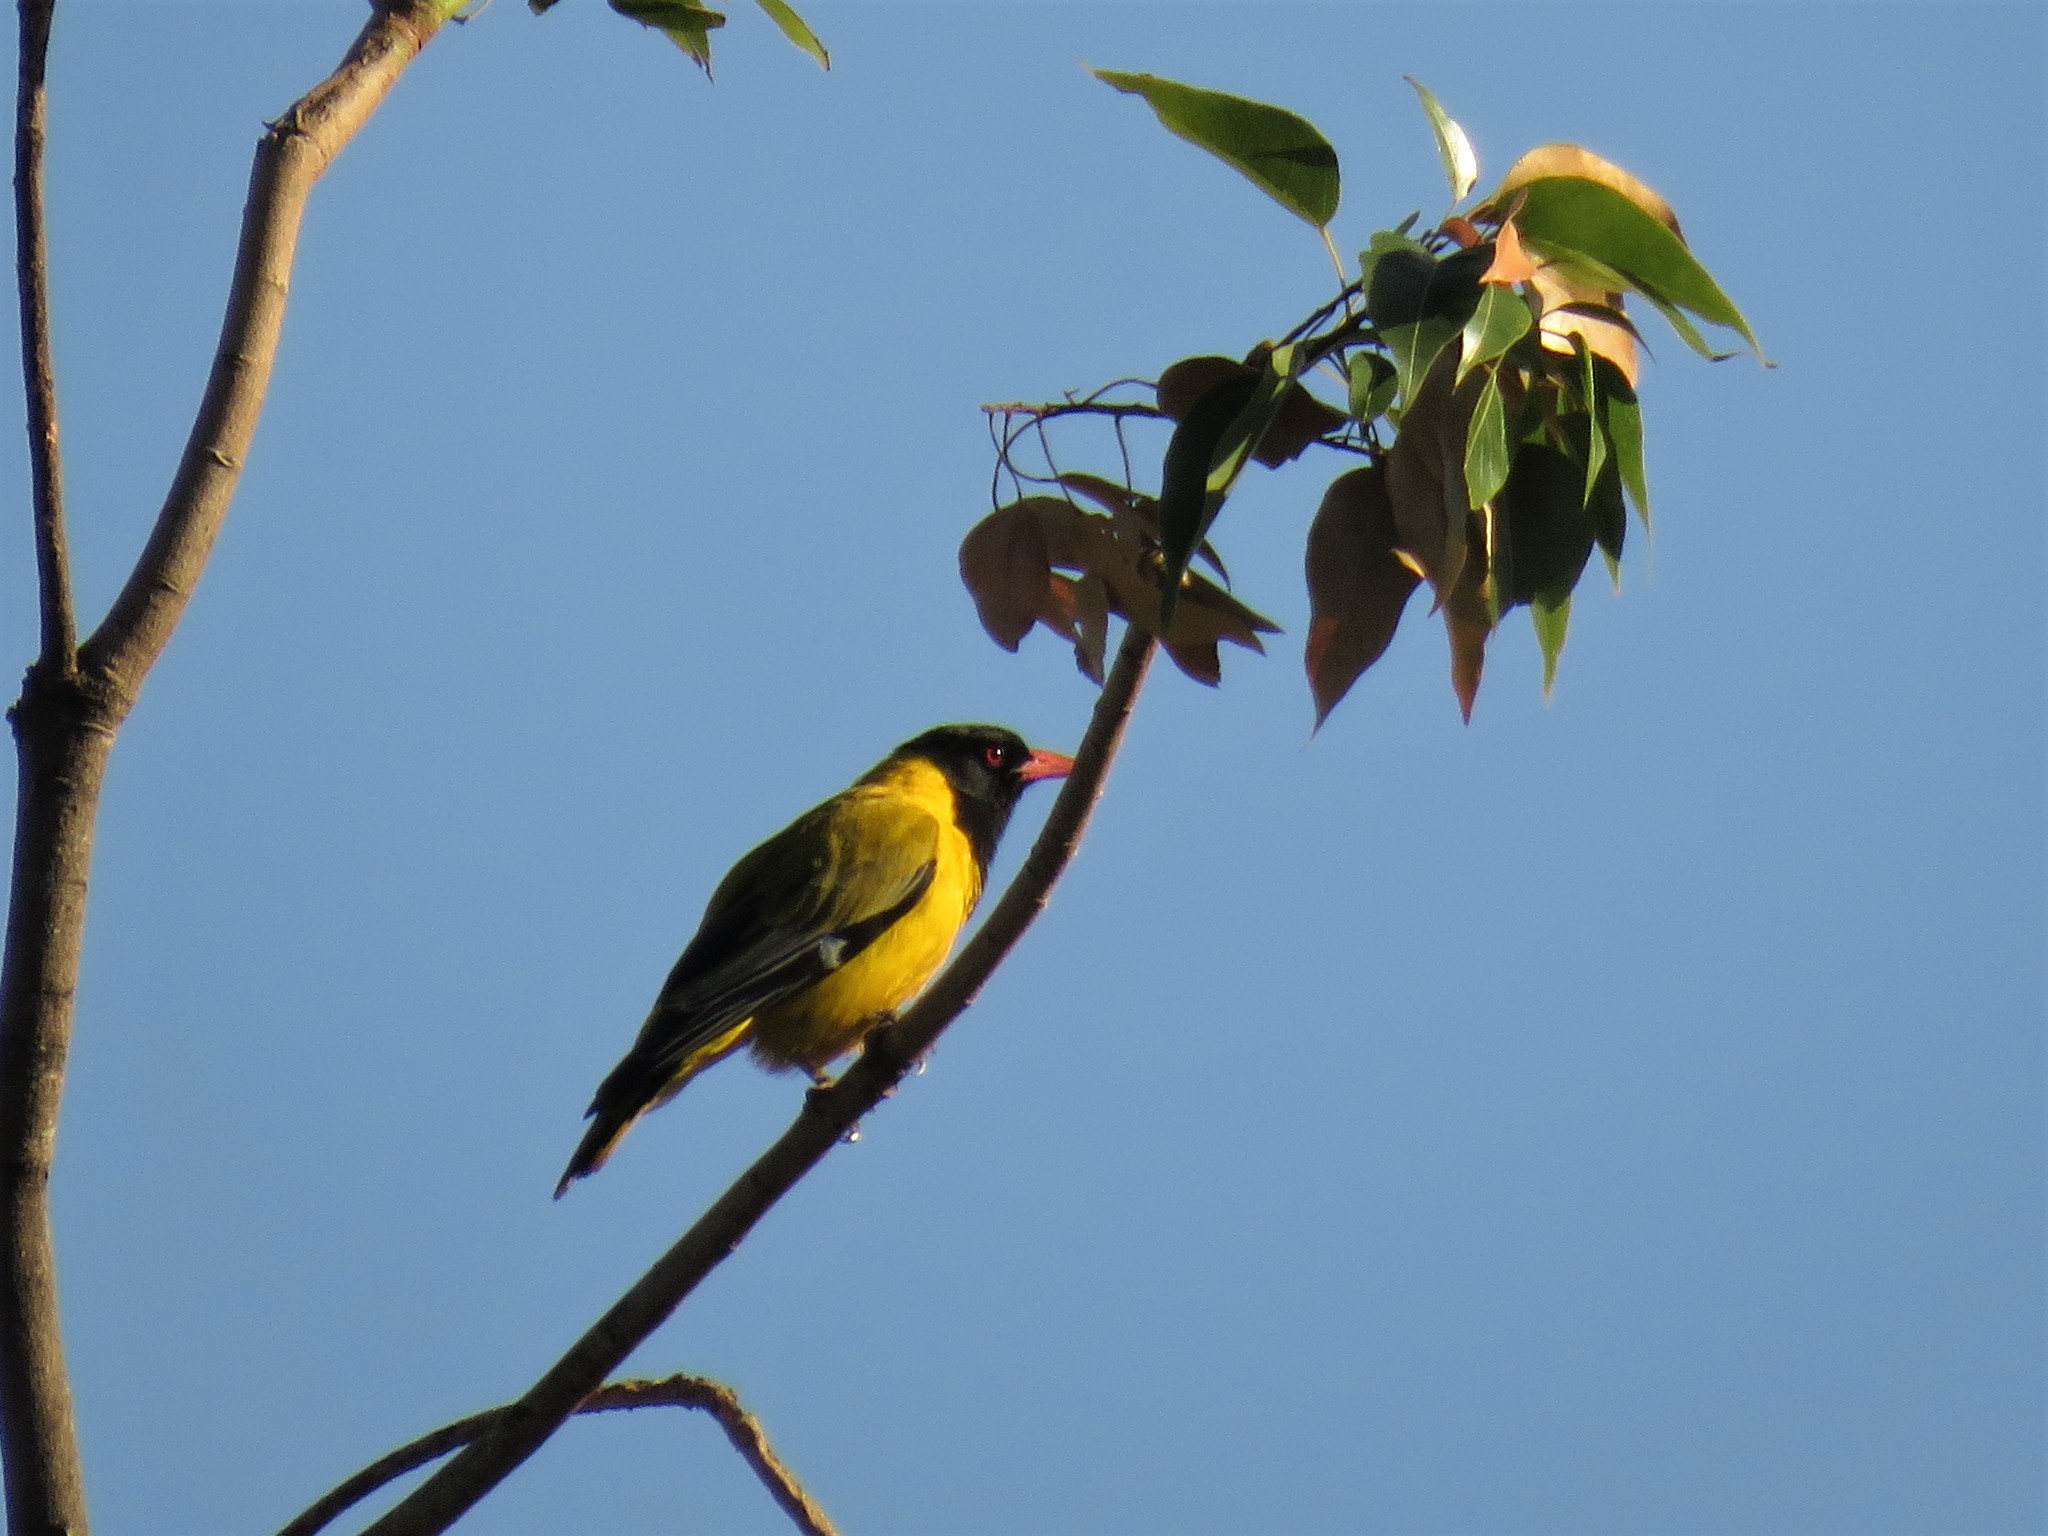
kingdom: Animalia
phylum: Chordata
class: Aves
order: Passeriformes
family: Oriolidae
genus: Oriolus
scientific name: Oriolus larvatus
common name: Black-headed oriole
